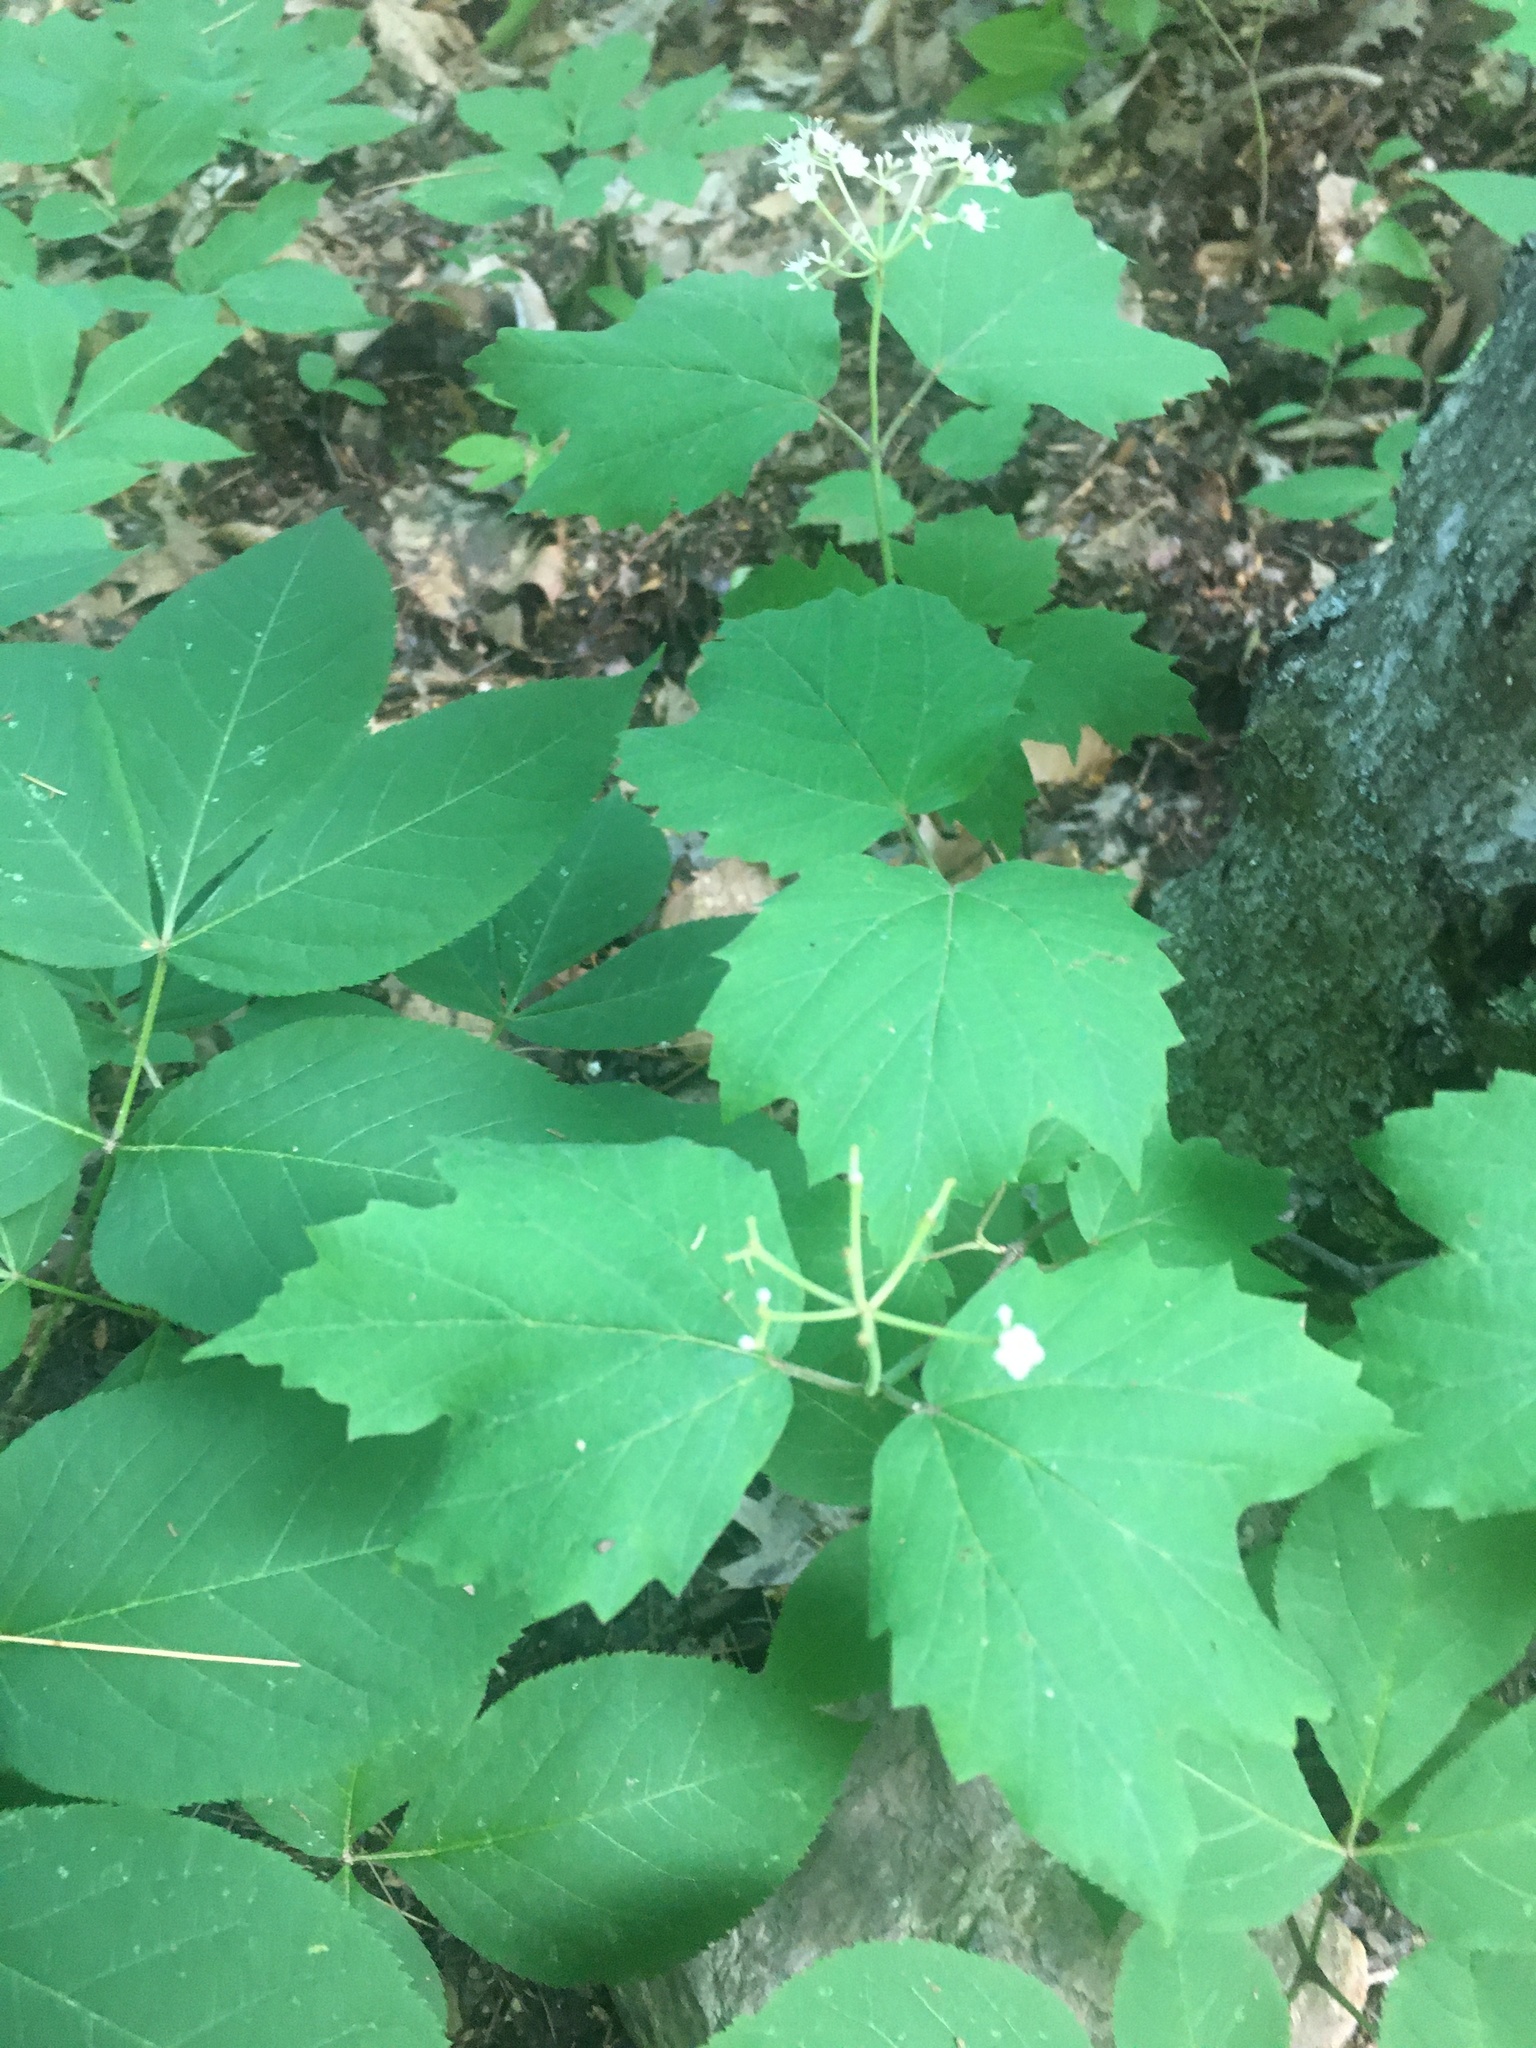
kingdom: Plantae
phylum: Tracheophyta
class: Magnoliopsida
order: Dipsacales
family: Viburnaceae
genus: Viburnum
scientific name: Viburnum acerifolium
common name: Dockmackie
